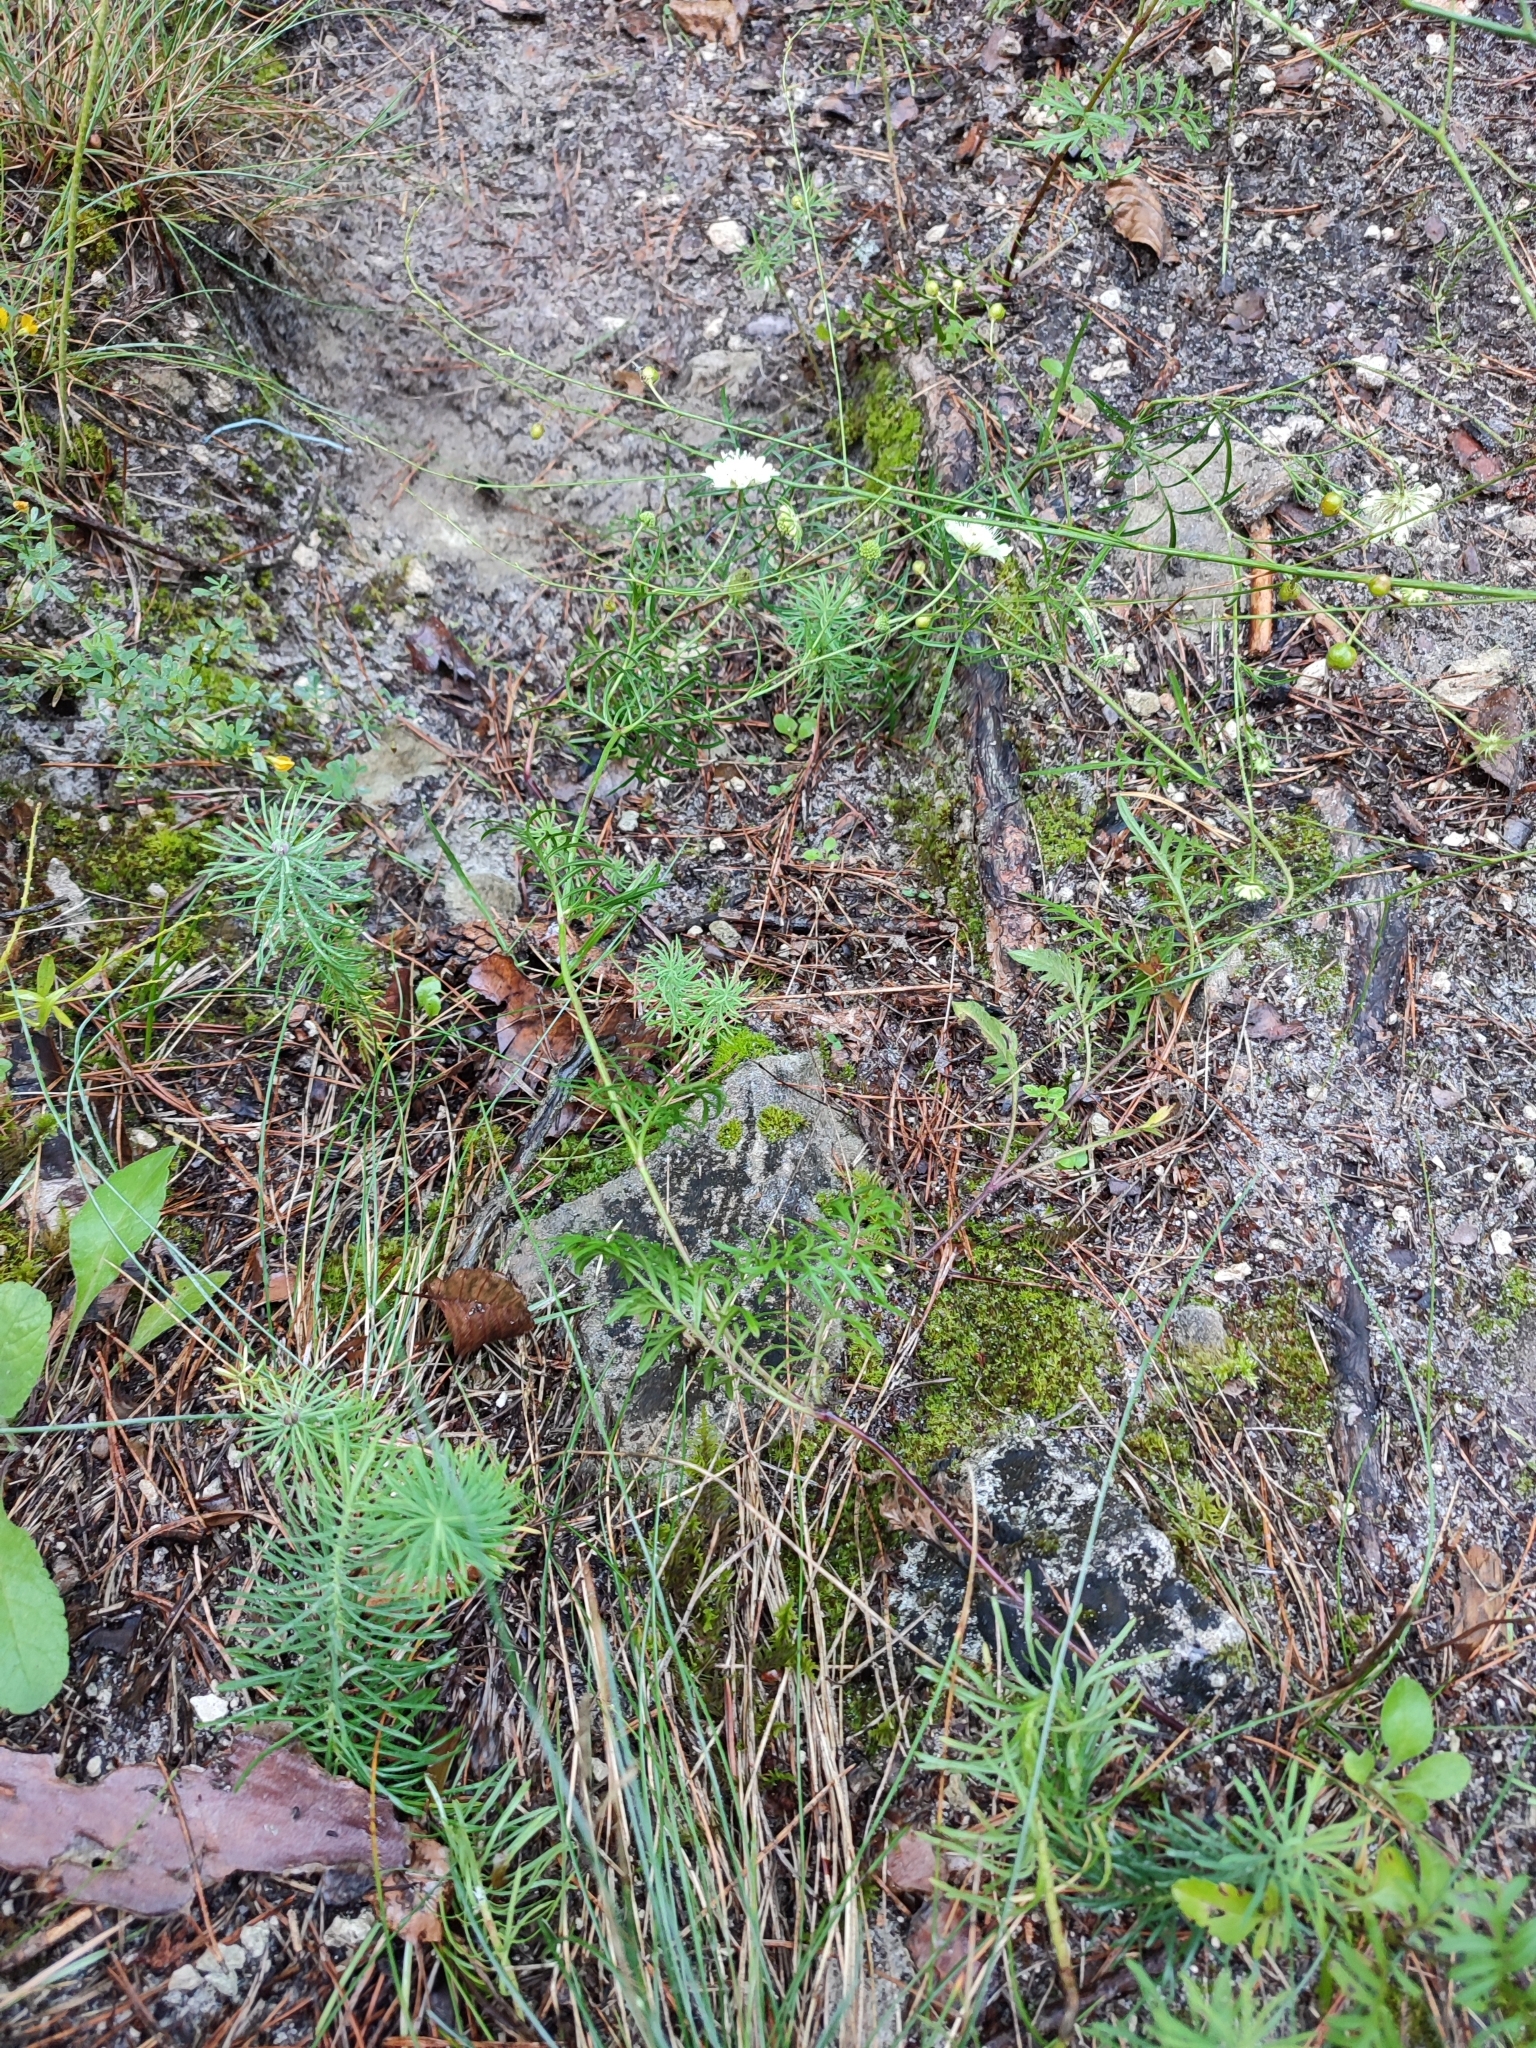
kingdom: Plantae
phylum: Tracheophyta
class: Magnoliopsida
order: Dipsacales
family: Caprifoliaceae
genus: Scabiosa
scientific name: Scabiosa ochroleuca
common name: Cream pincushions
